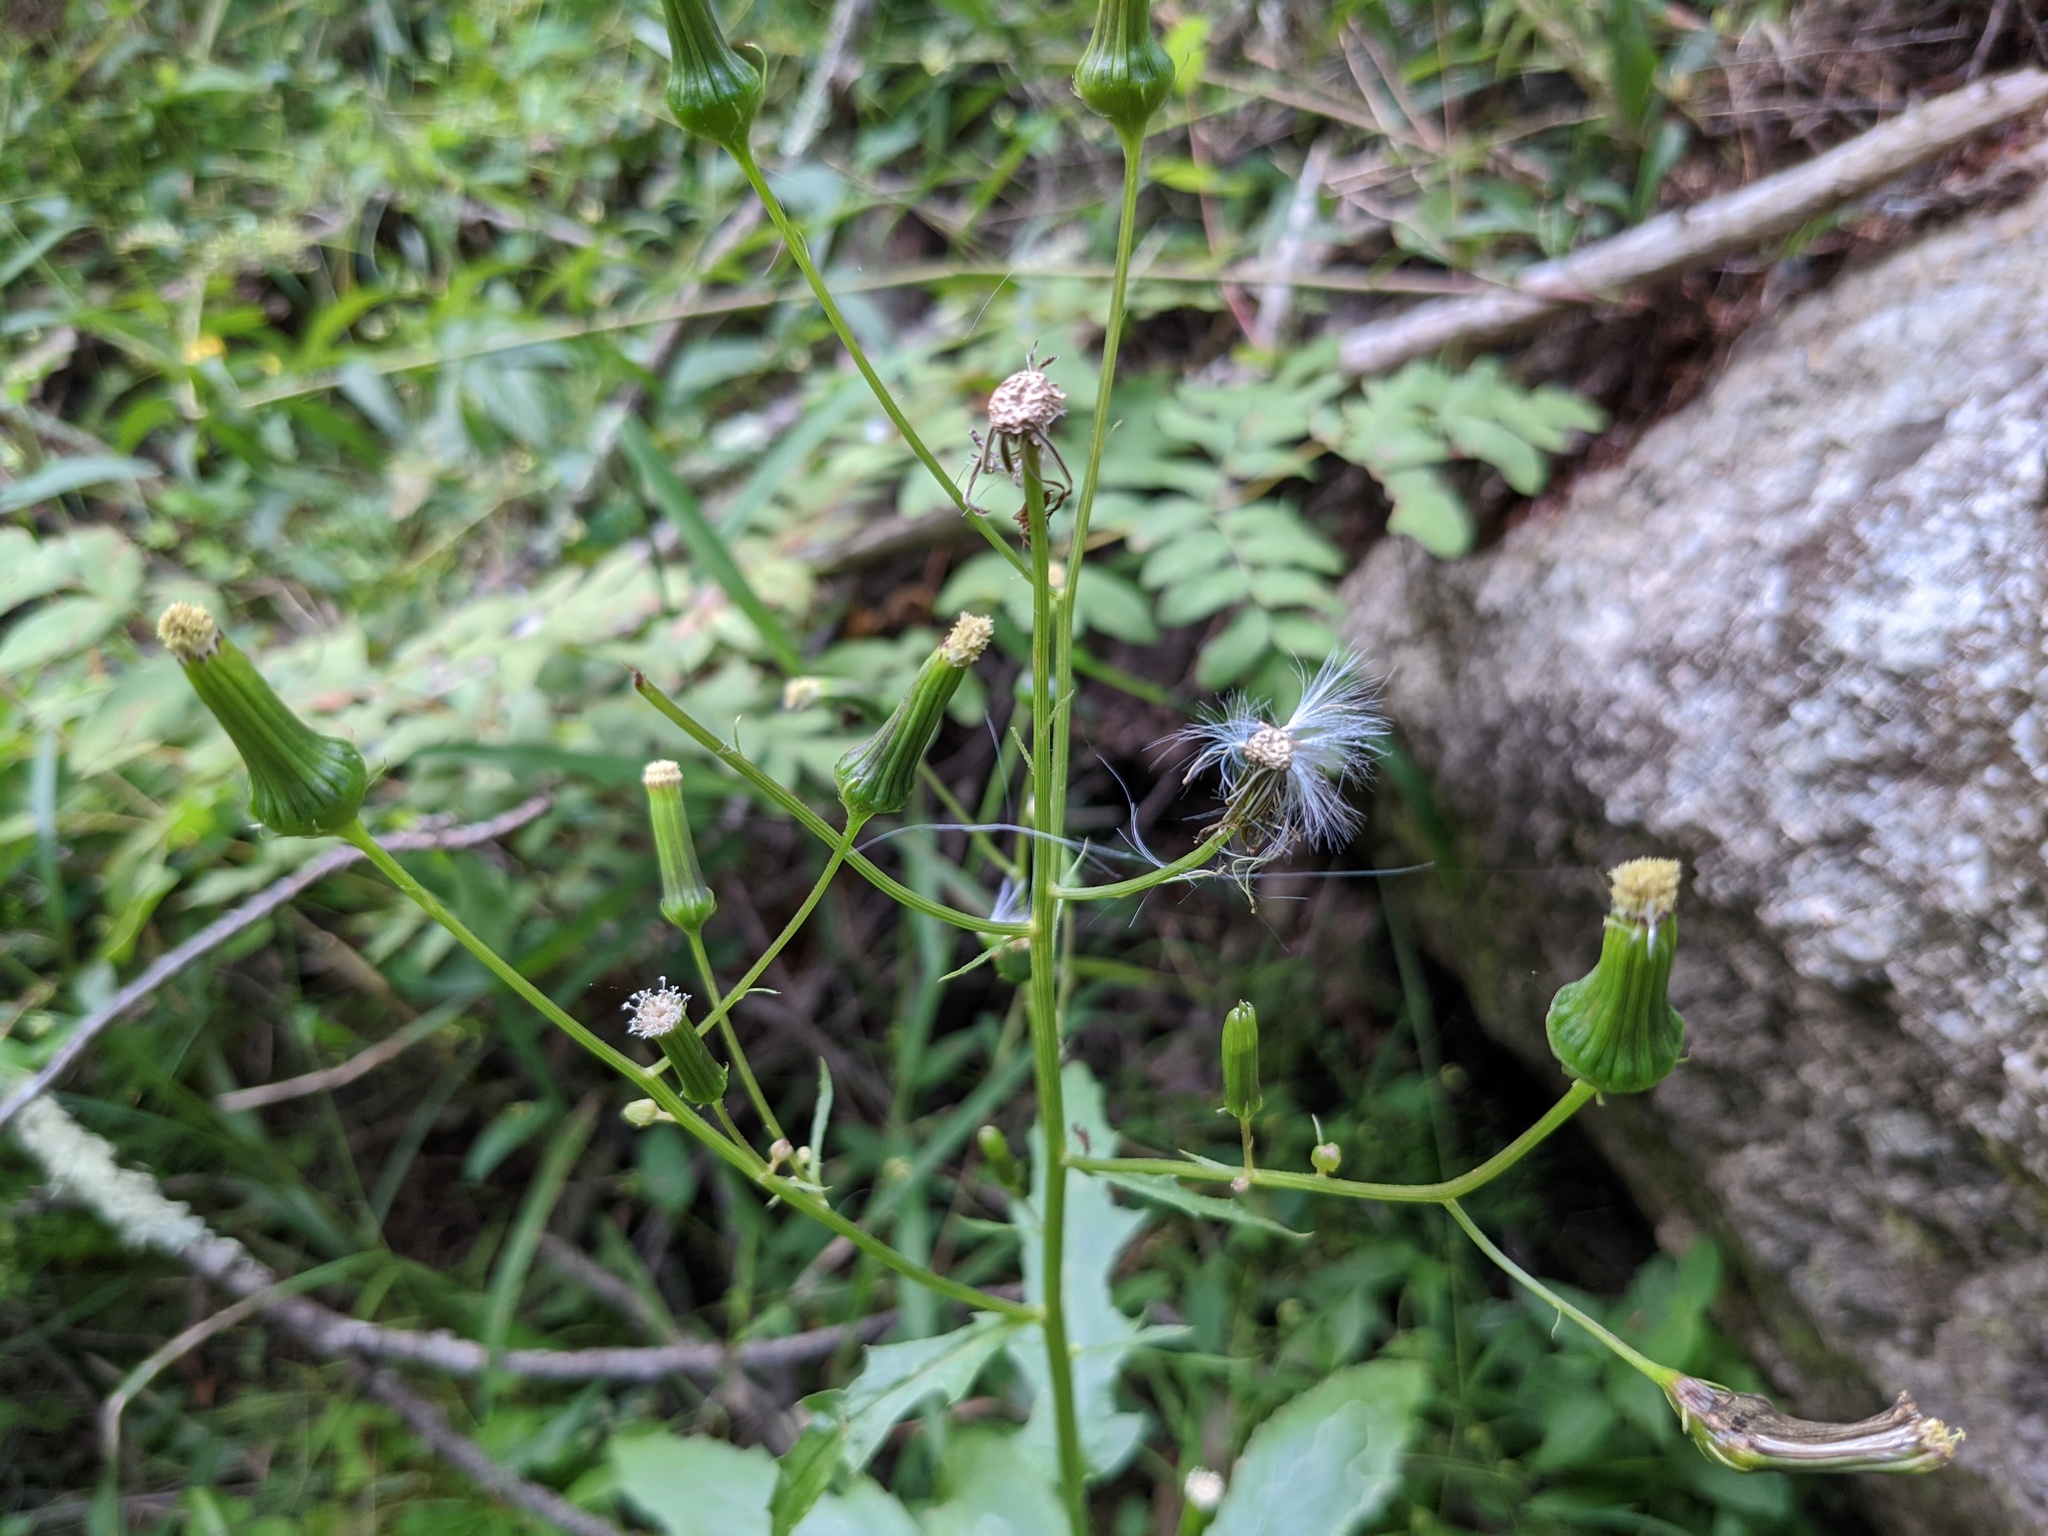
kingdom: Plantae
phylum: Tracheophyta
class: Magnoliopsida
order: Asterales
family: Asteraceae
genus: Erechtites
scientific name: Erechtites hieraciifolius
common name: American burnweed
